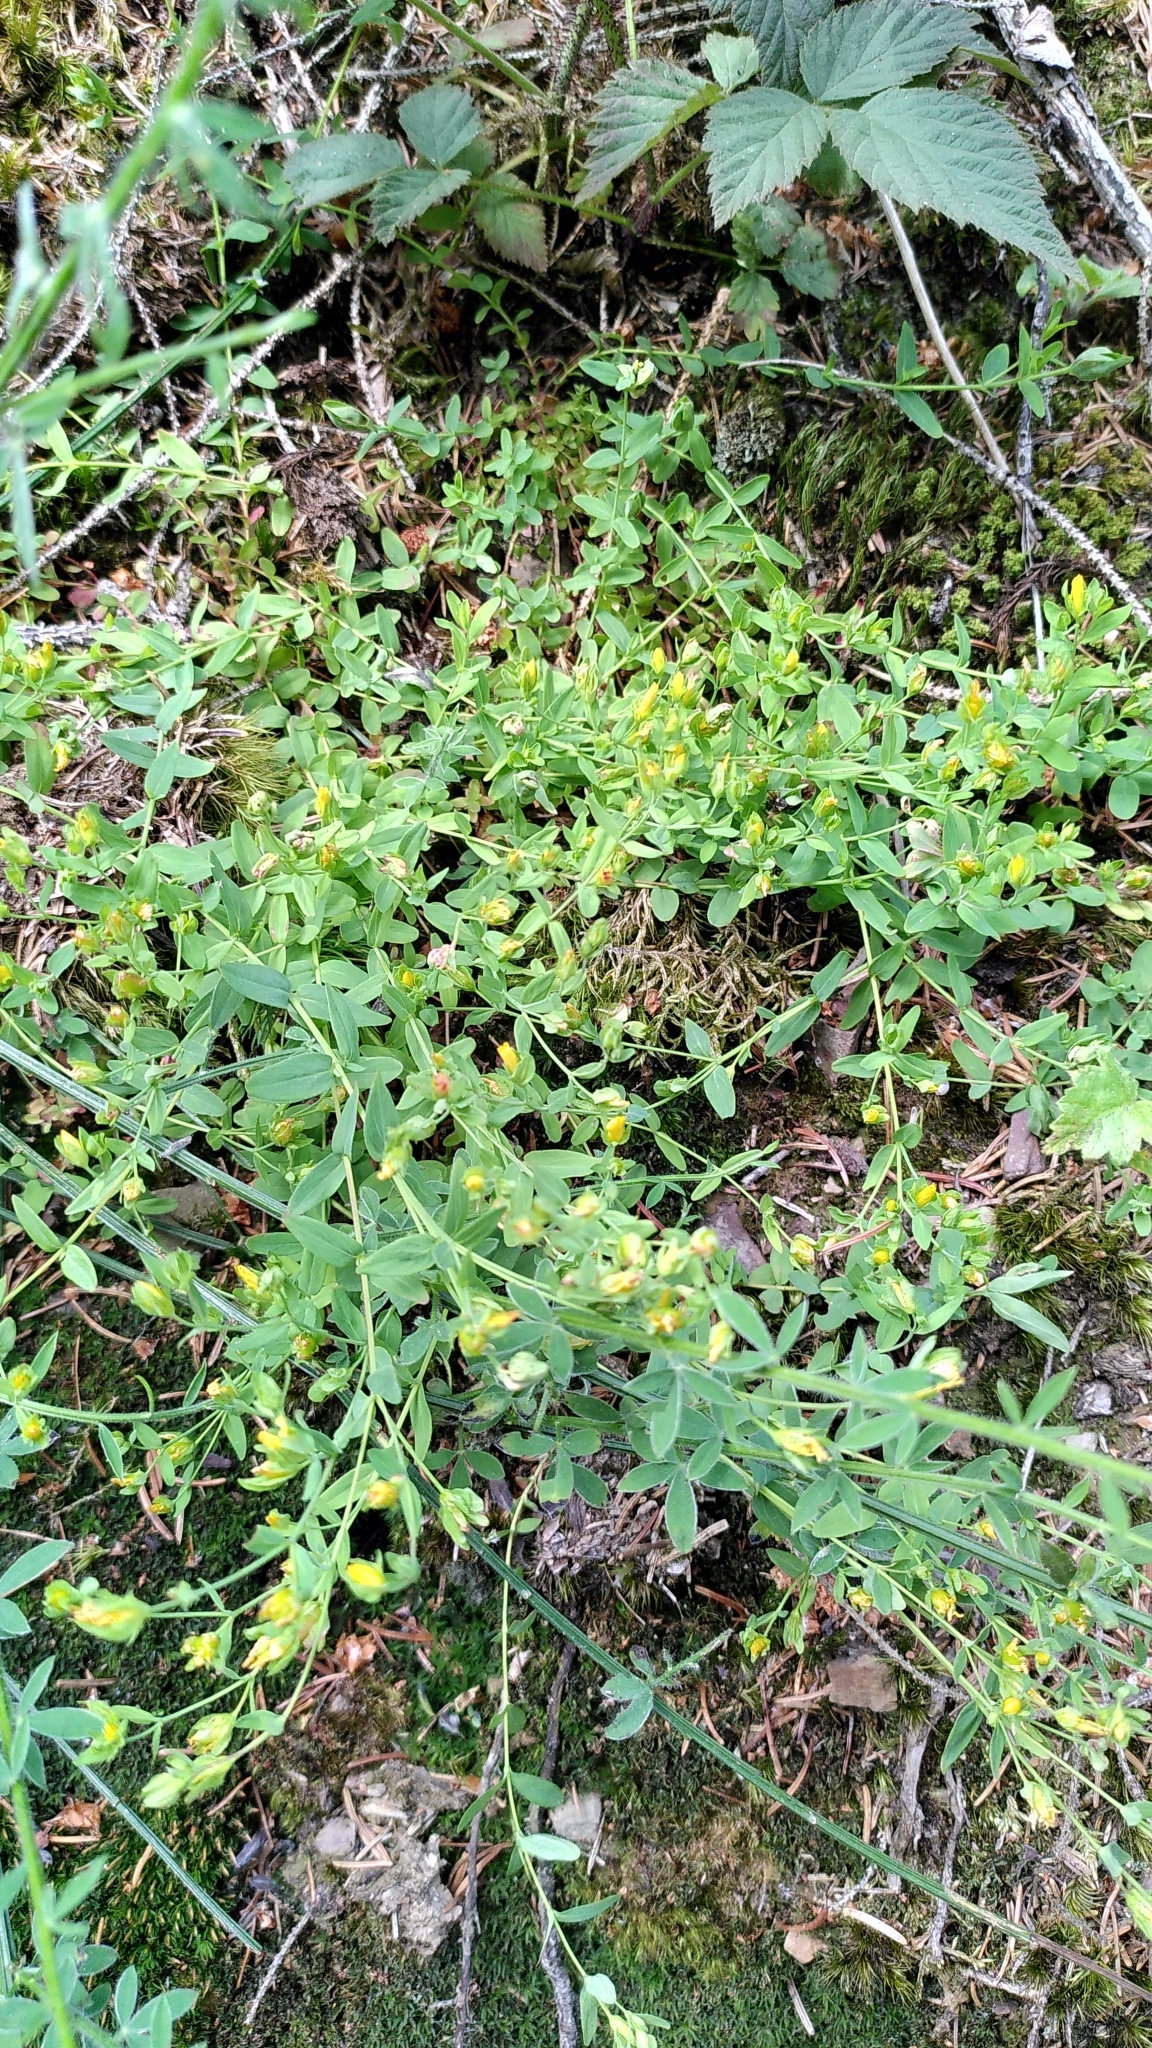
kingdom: Plantae
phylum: Tracheophyta
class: Magnoliopsida
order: Malpighiales
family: Hypericaceae
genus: Hypericum
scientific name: Hypericum humifusum
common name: Trailing st. john's-wort
